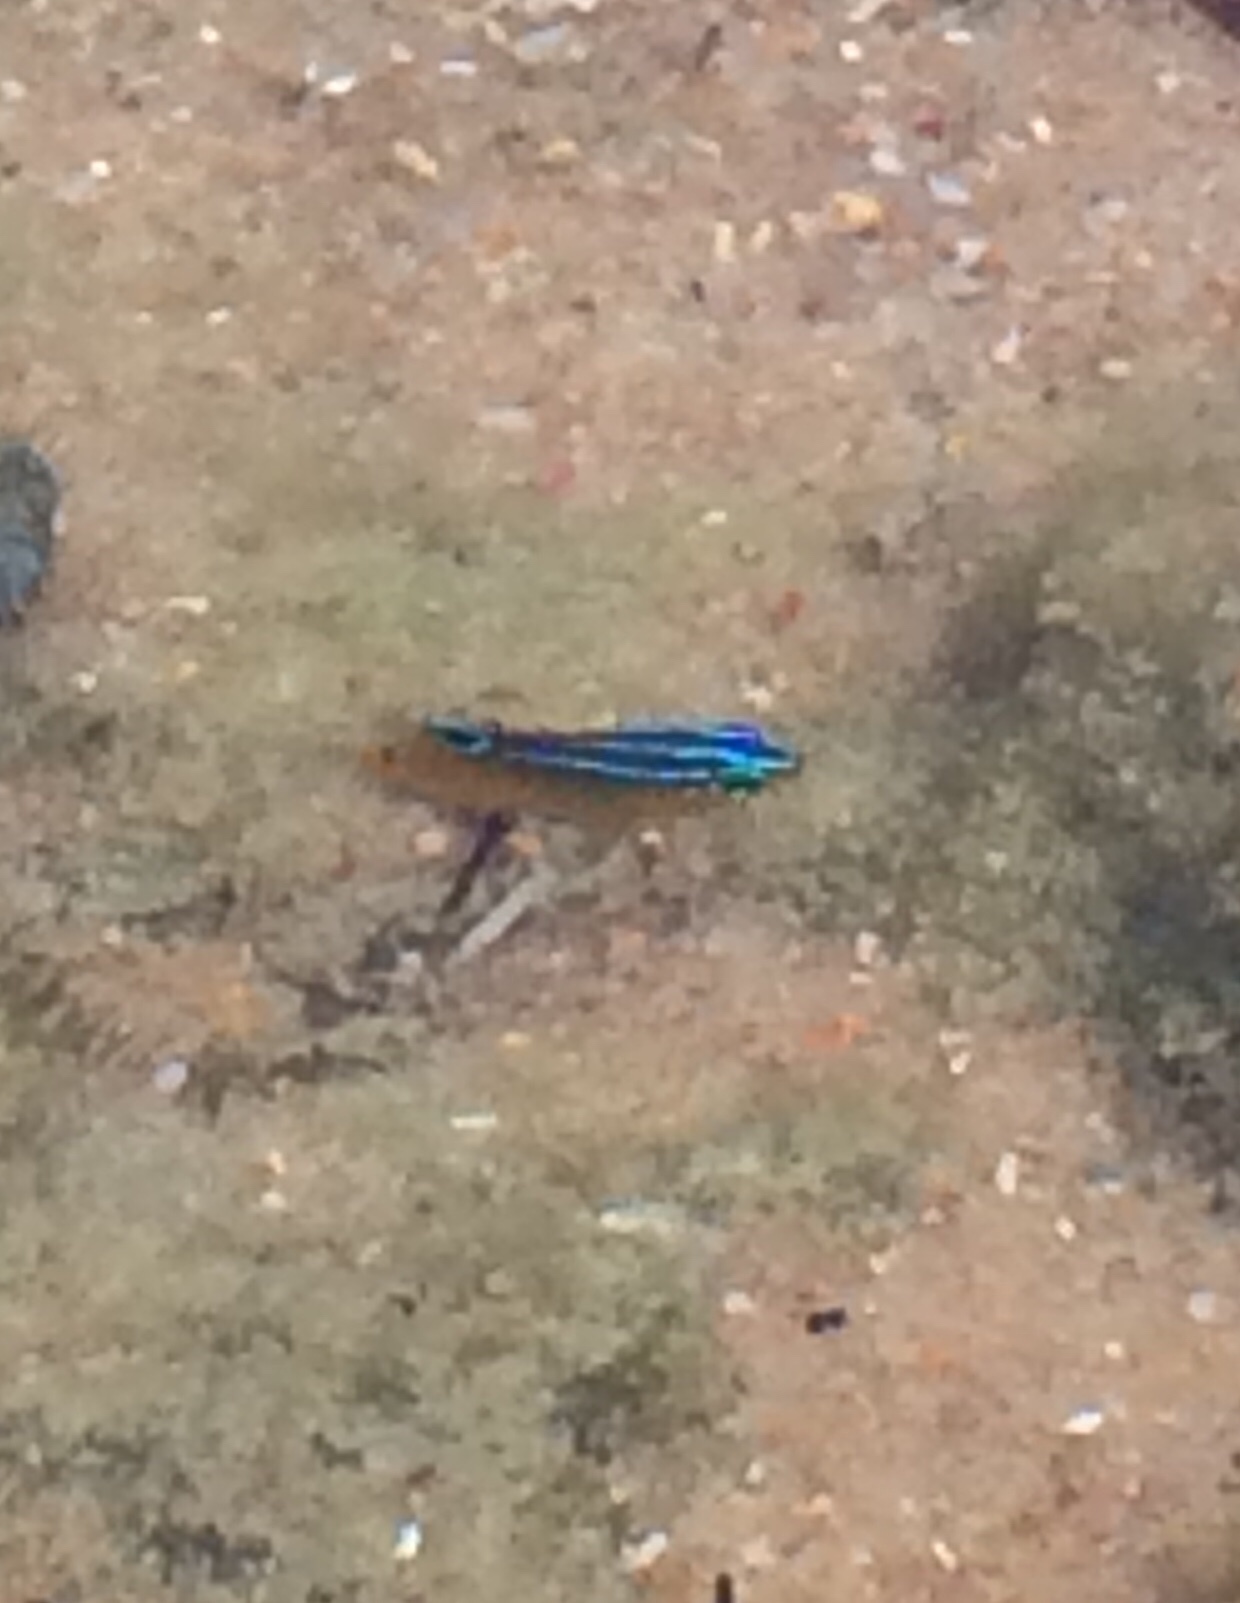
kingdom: Animalia
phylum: Chordata
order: Perciformes
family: Pomacentridae
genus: Stegastes
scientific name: Stegastes variabilis
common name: Cocoa damselfish
